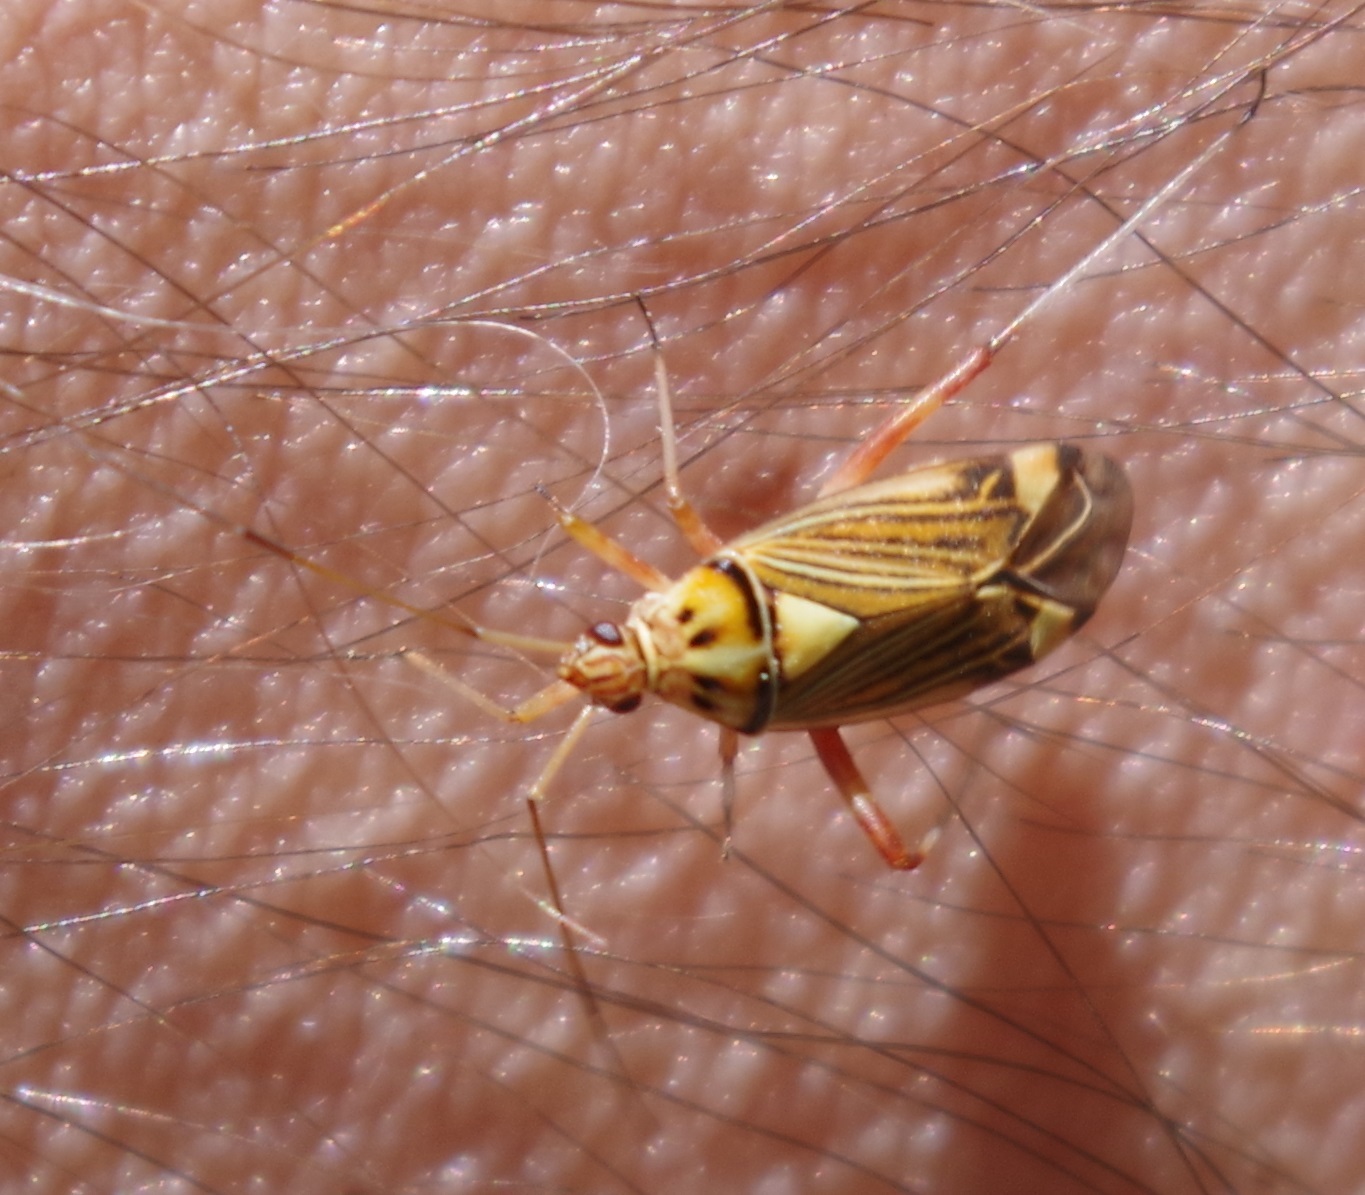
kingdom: Animalia
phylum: Arthropoda
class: Insecta
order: Hemiptera
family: Miridae
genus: Rhabdomiris
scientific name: Rhabdomiris striatellus
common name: Plant bug
